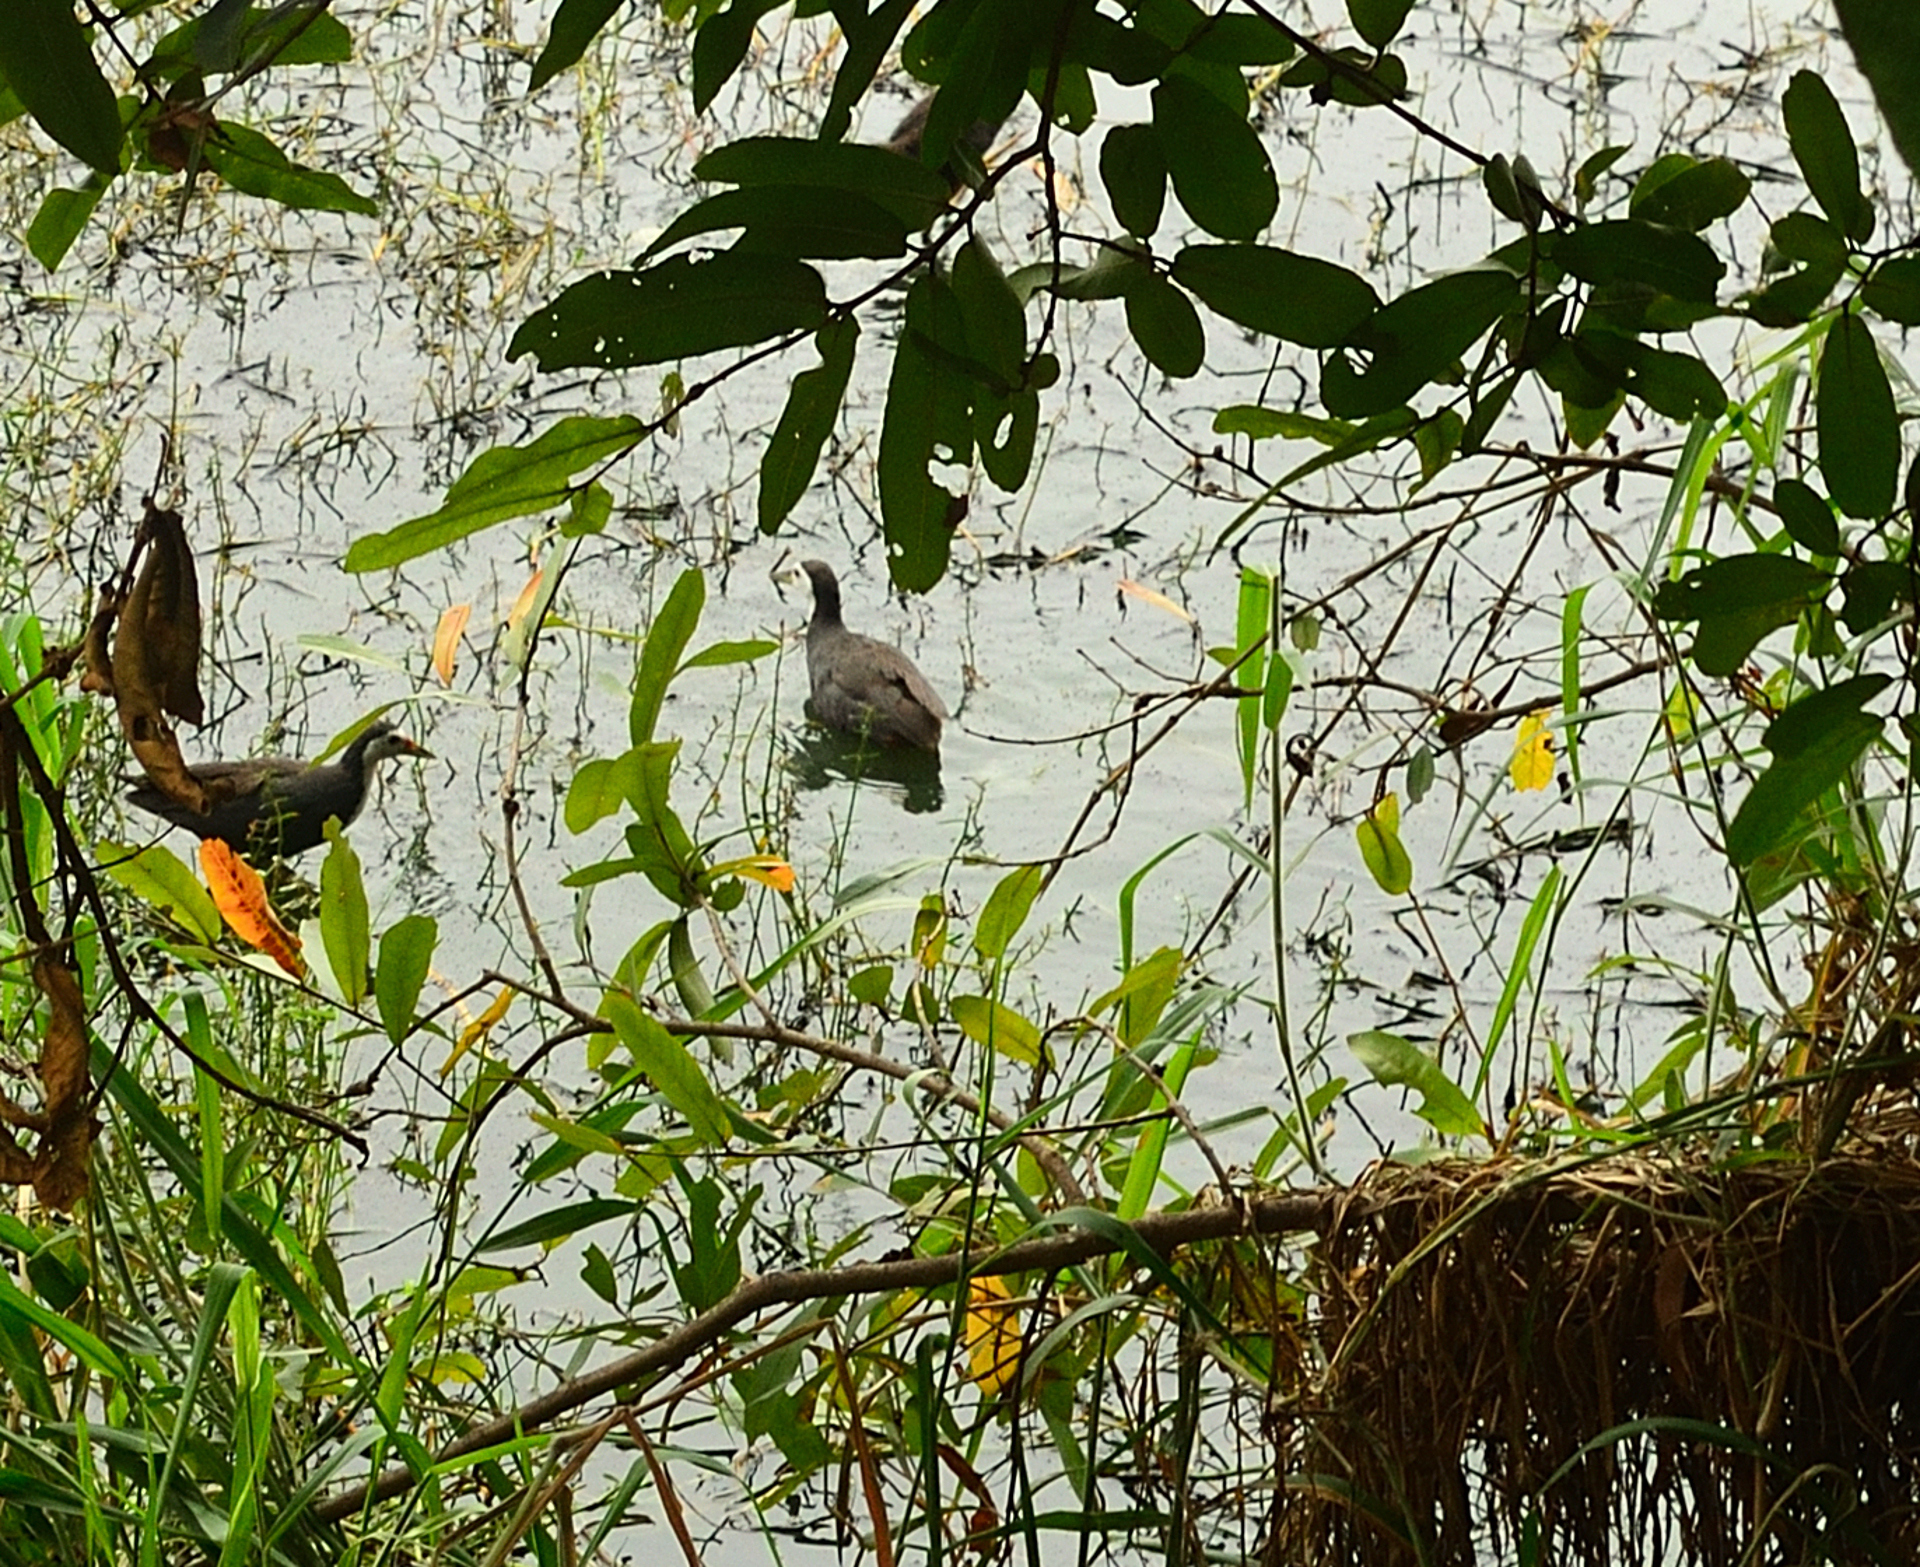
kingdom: Animalia
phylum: Chordata
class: Aves
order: Gruiformes
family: Rallidae
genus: Amaurornis
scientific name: Amaurornis phoenicurus
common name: White-breasted waterhen
